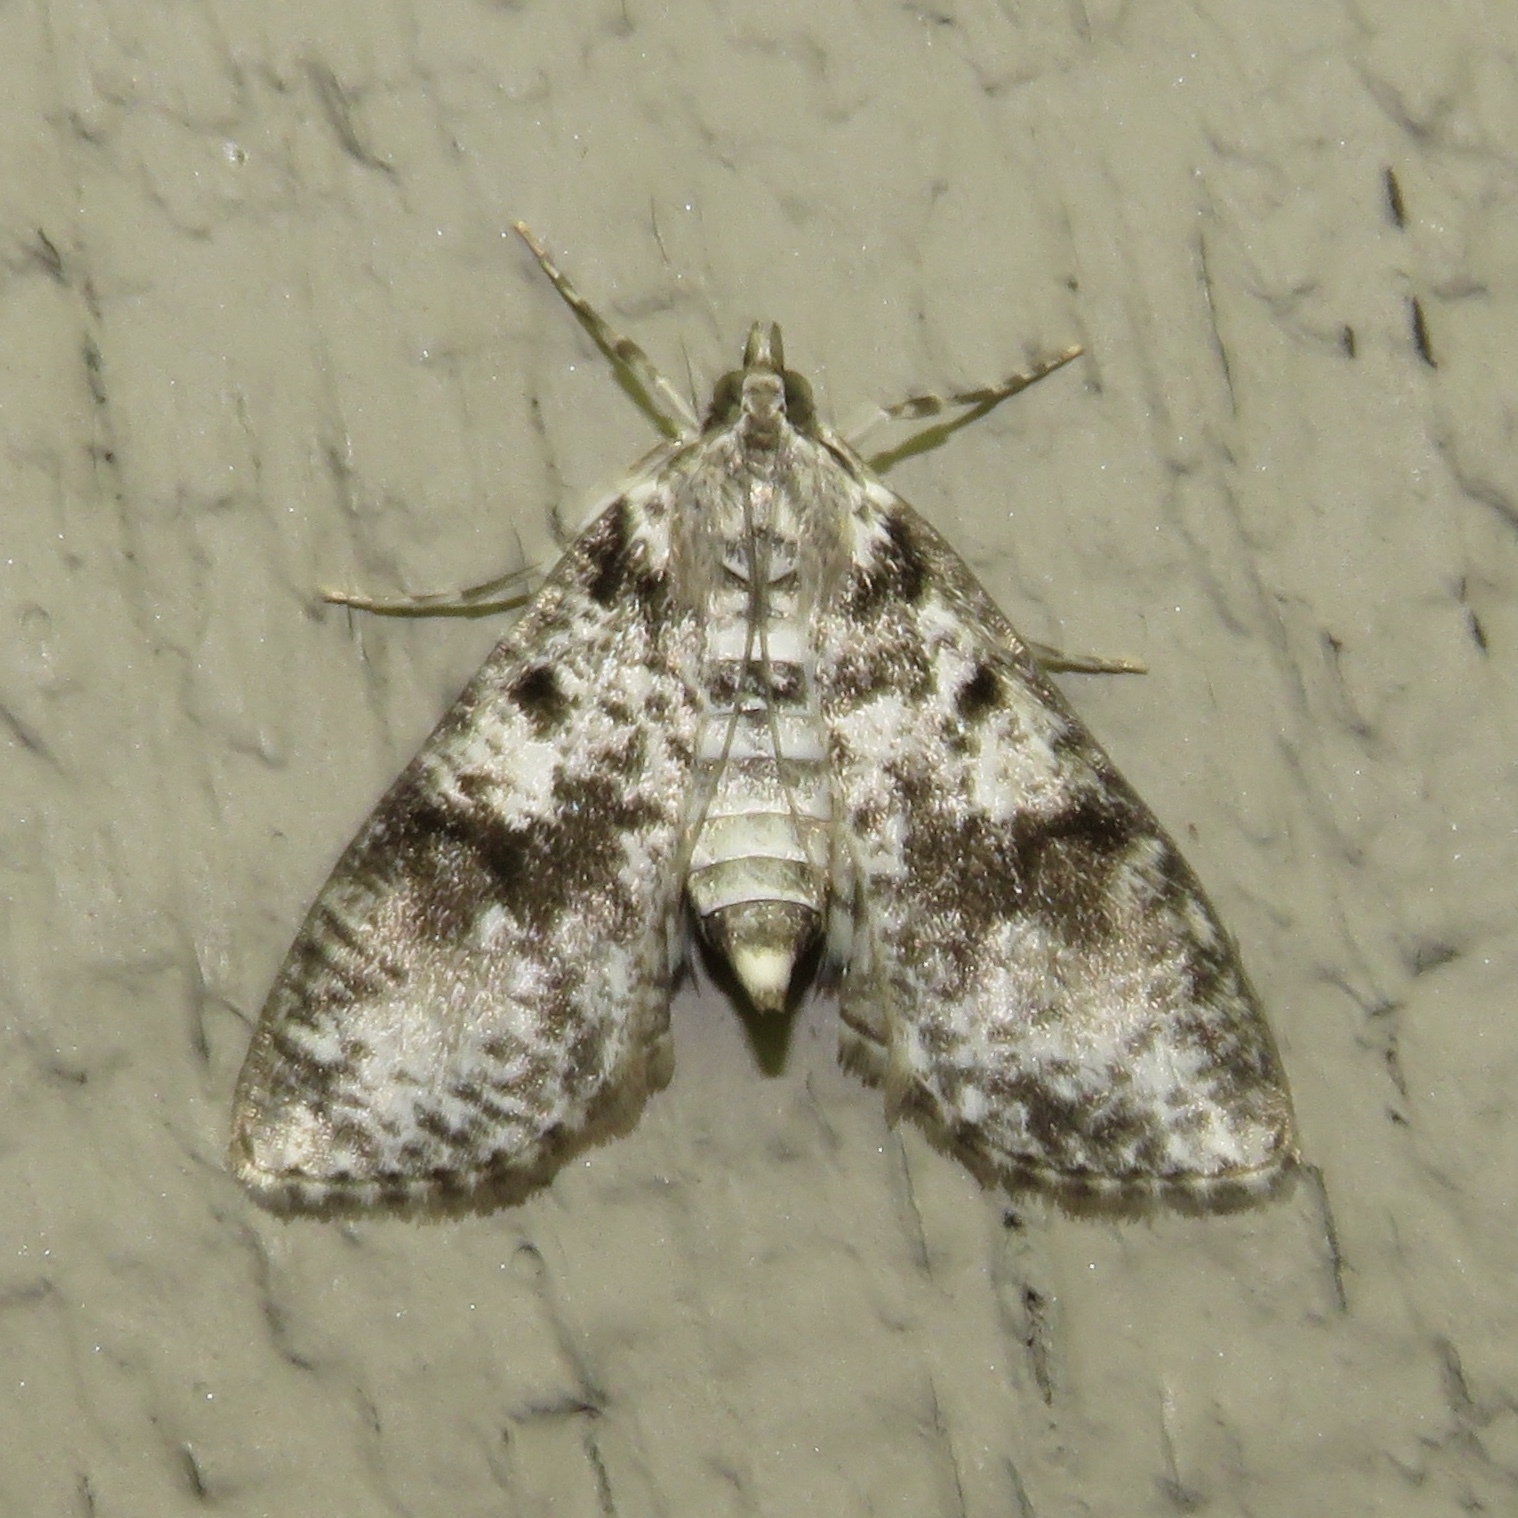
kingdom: Animalia
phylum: Arthropoda
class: Insecta
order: Lepidoptera
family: Crambidae
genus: Palpita
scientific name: Palpita magniferalis
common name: Splendid palpita moth
